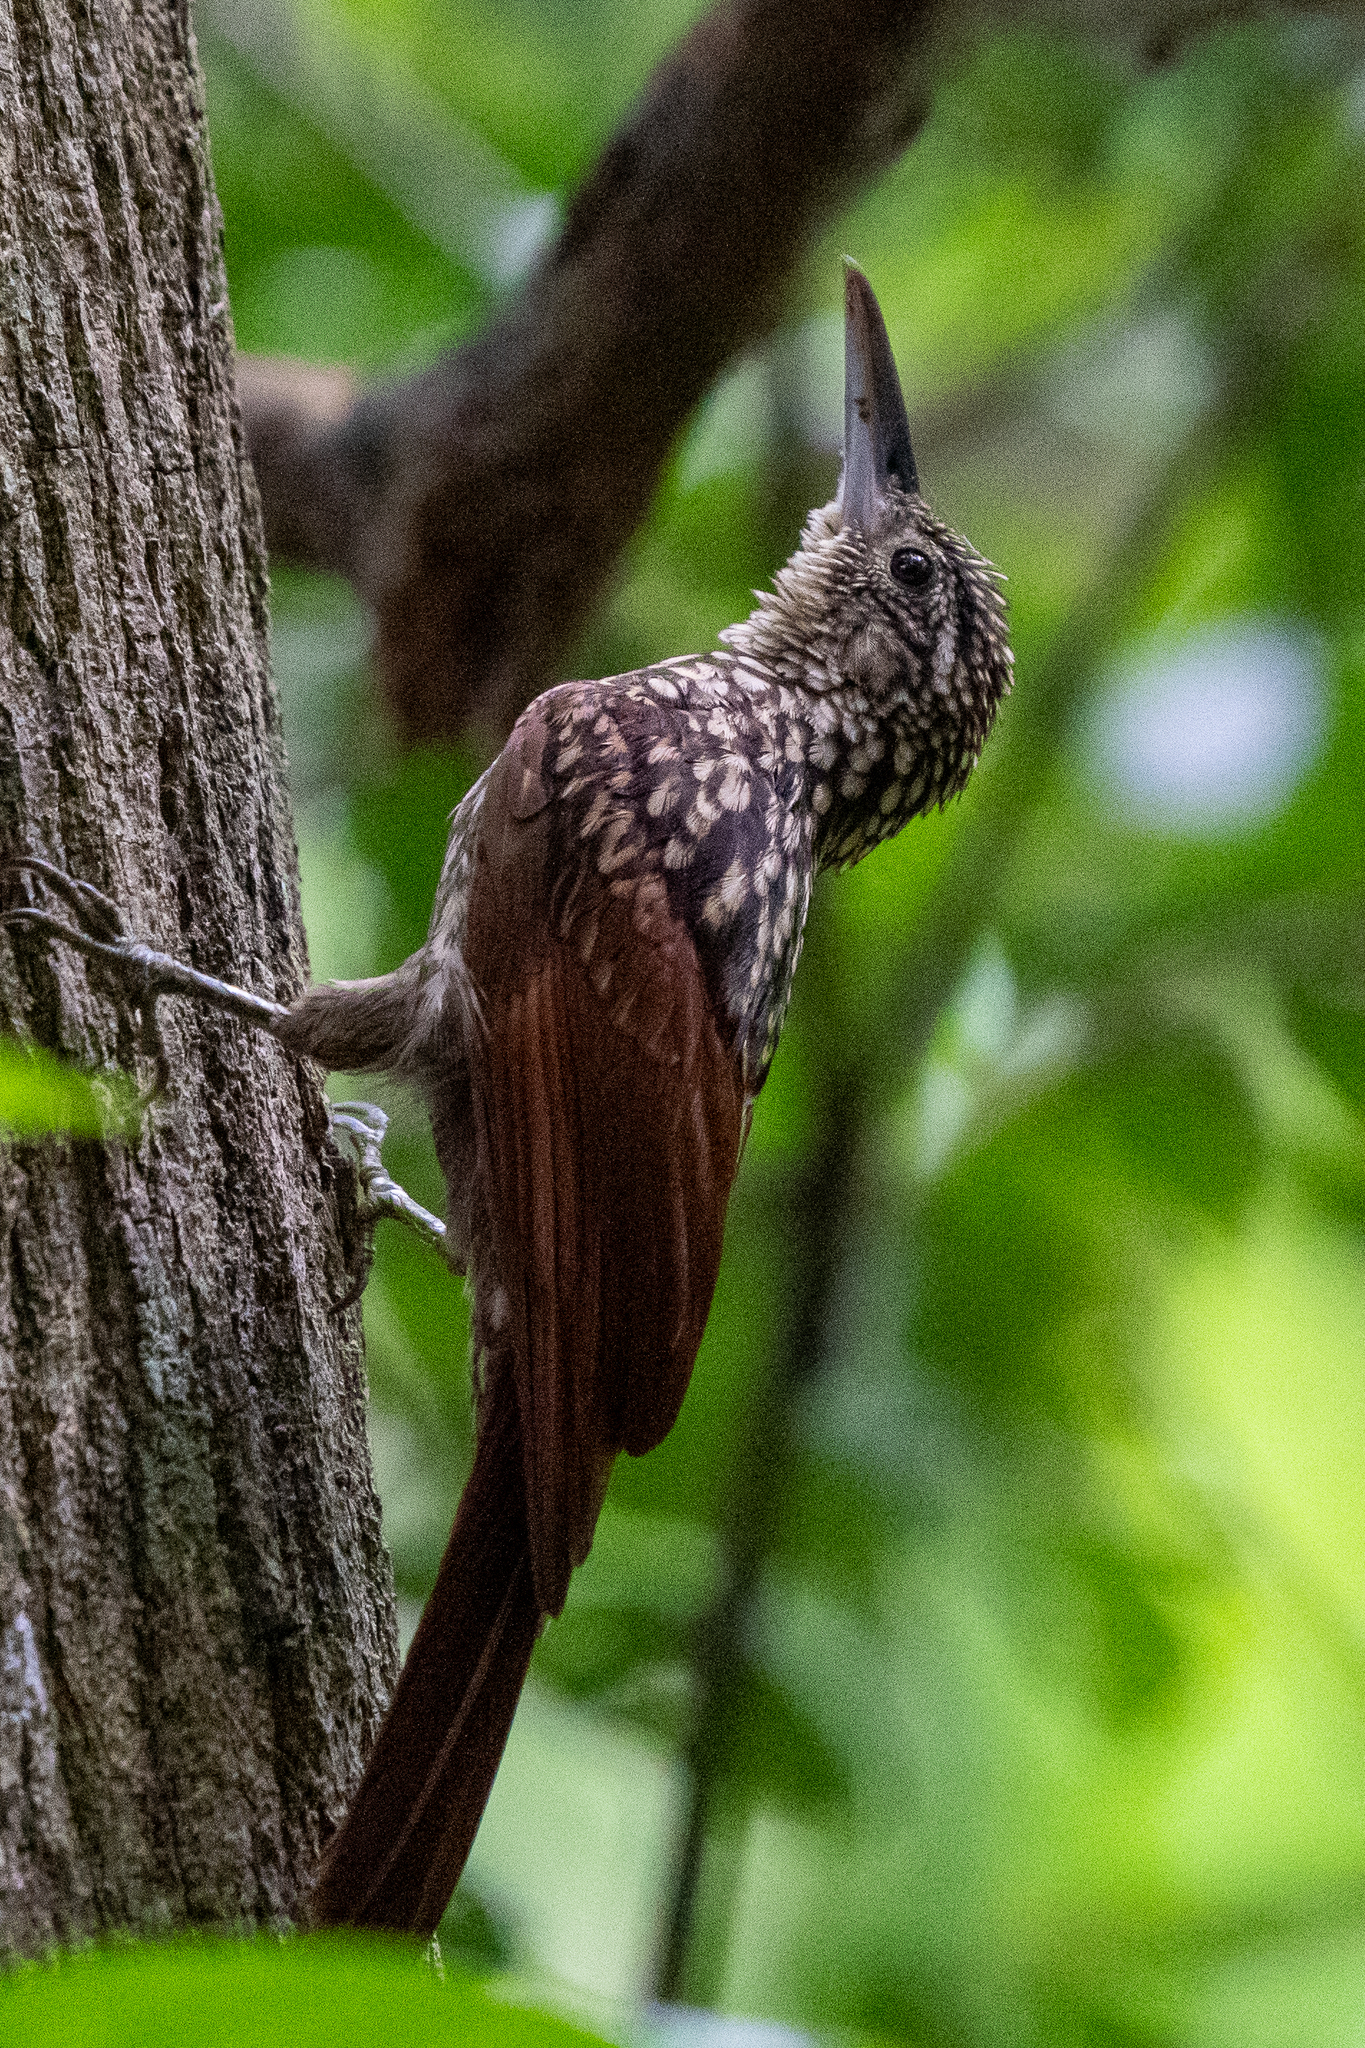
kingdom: Animalia
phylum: Chordata
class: Aves
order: Passeriformes
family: Furnariidae
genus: Xiphorhynchus
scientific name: Xiphorhynchus lachrymosus
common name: Black-striped woodcreeper
